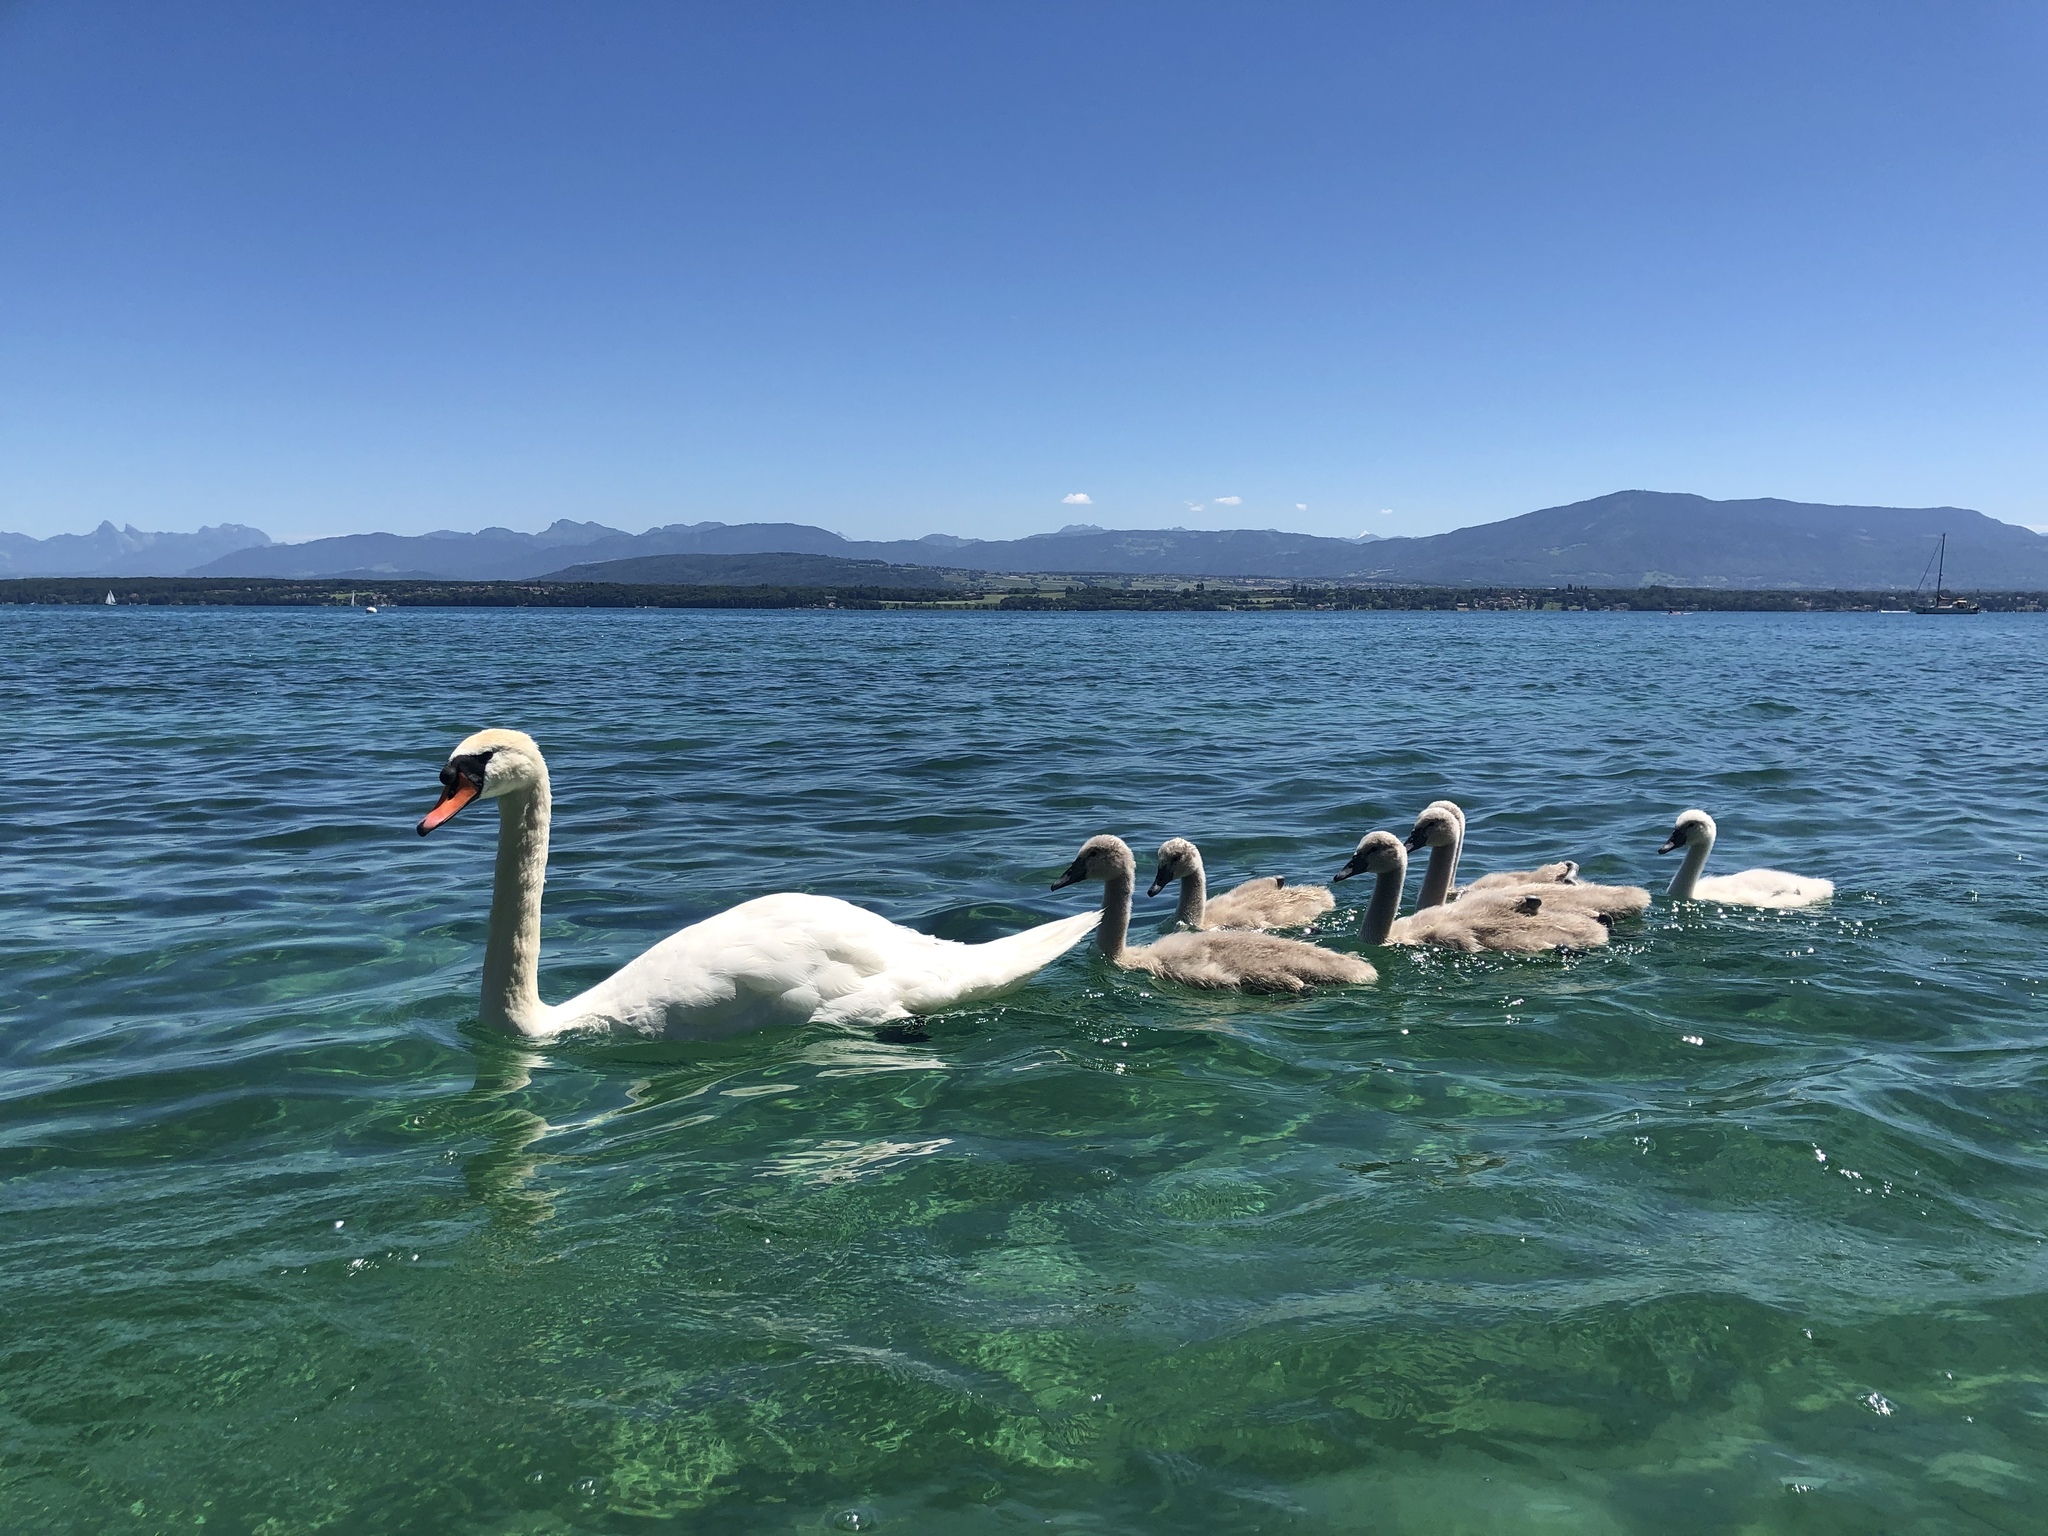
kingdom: Animalia
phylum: Chordata
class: Aves
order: Anseriformes
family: Anatidae
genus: Cygnus
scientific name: Cygnus olor
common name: Mute swan
